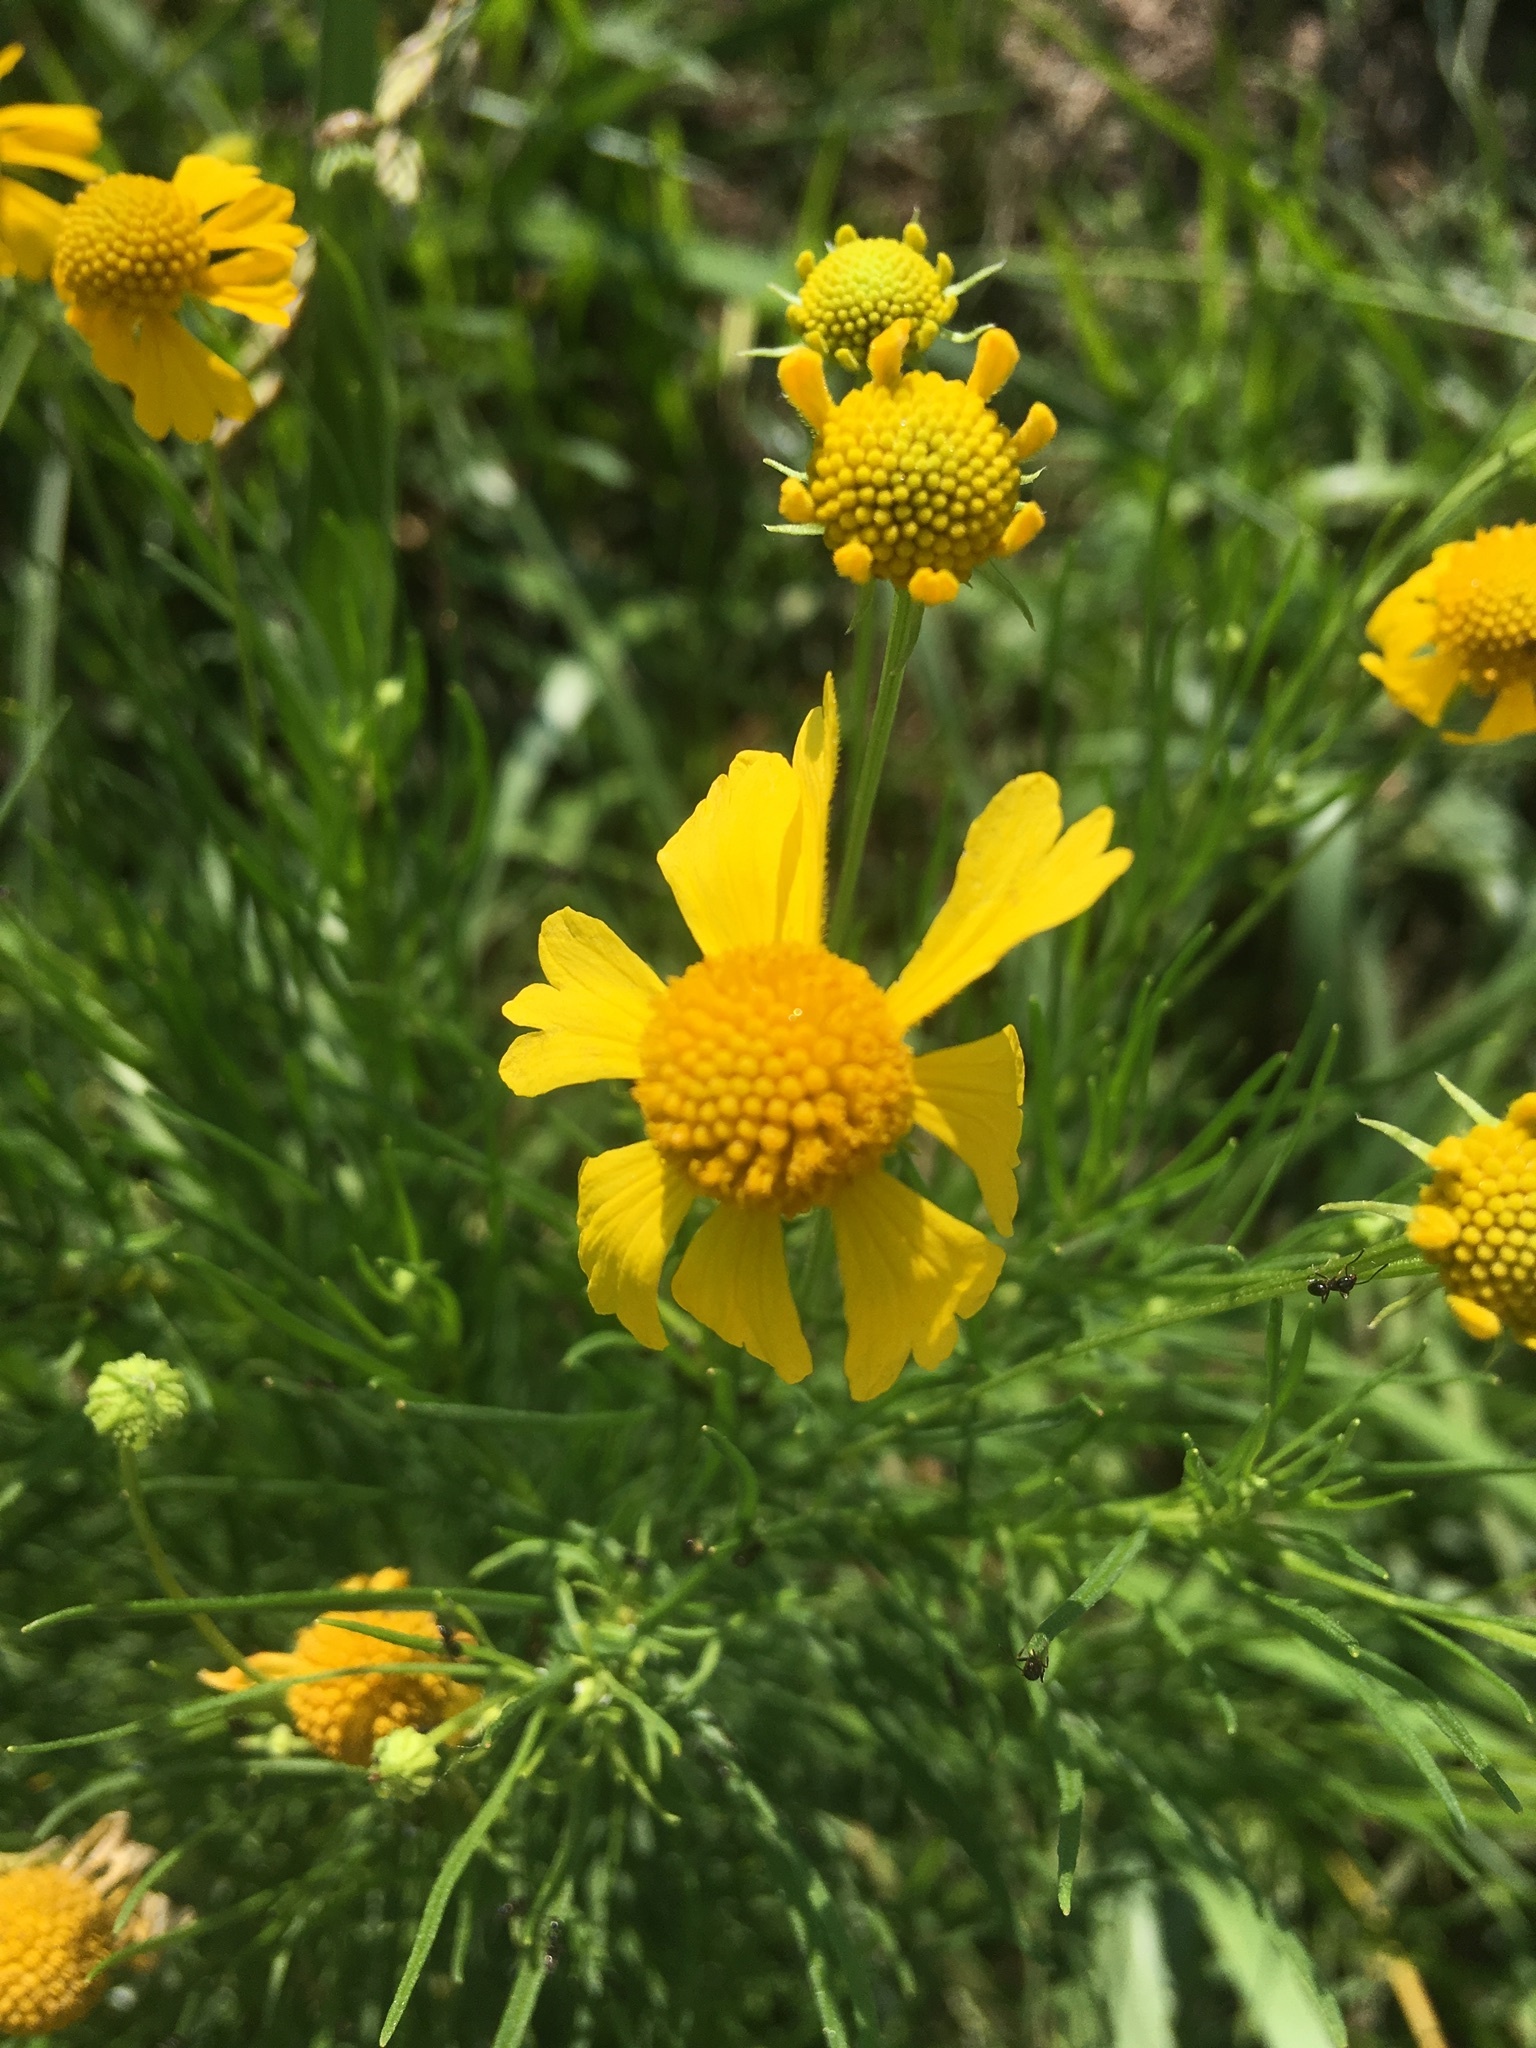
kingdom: Plantae
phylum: Tracheophyta
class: Magnoliopsida
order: Asterales
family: Asteraceae
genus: Helenium
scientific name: Helenium amarum
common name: Bitter sneezeweed
